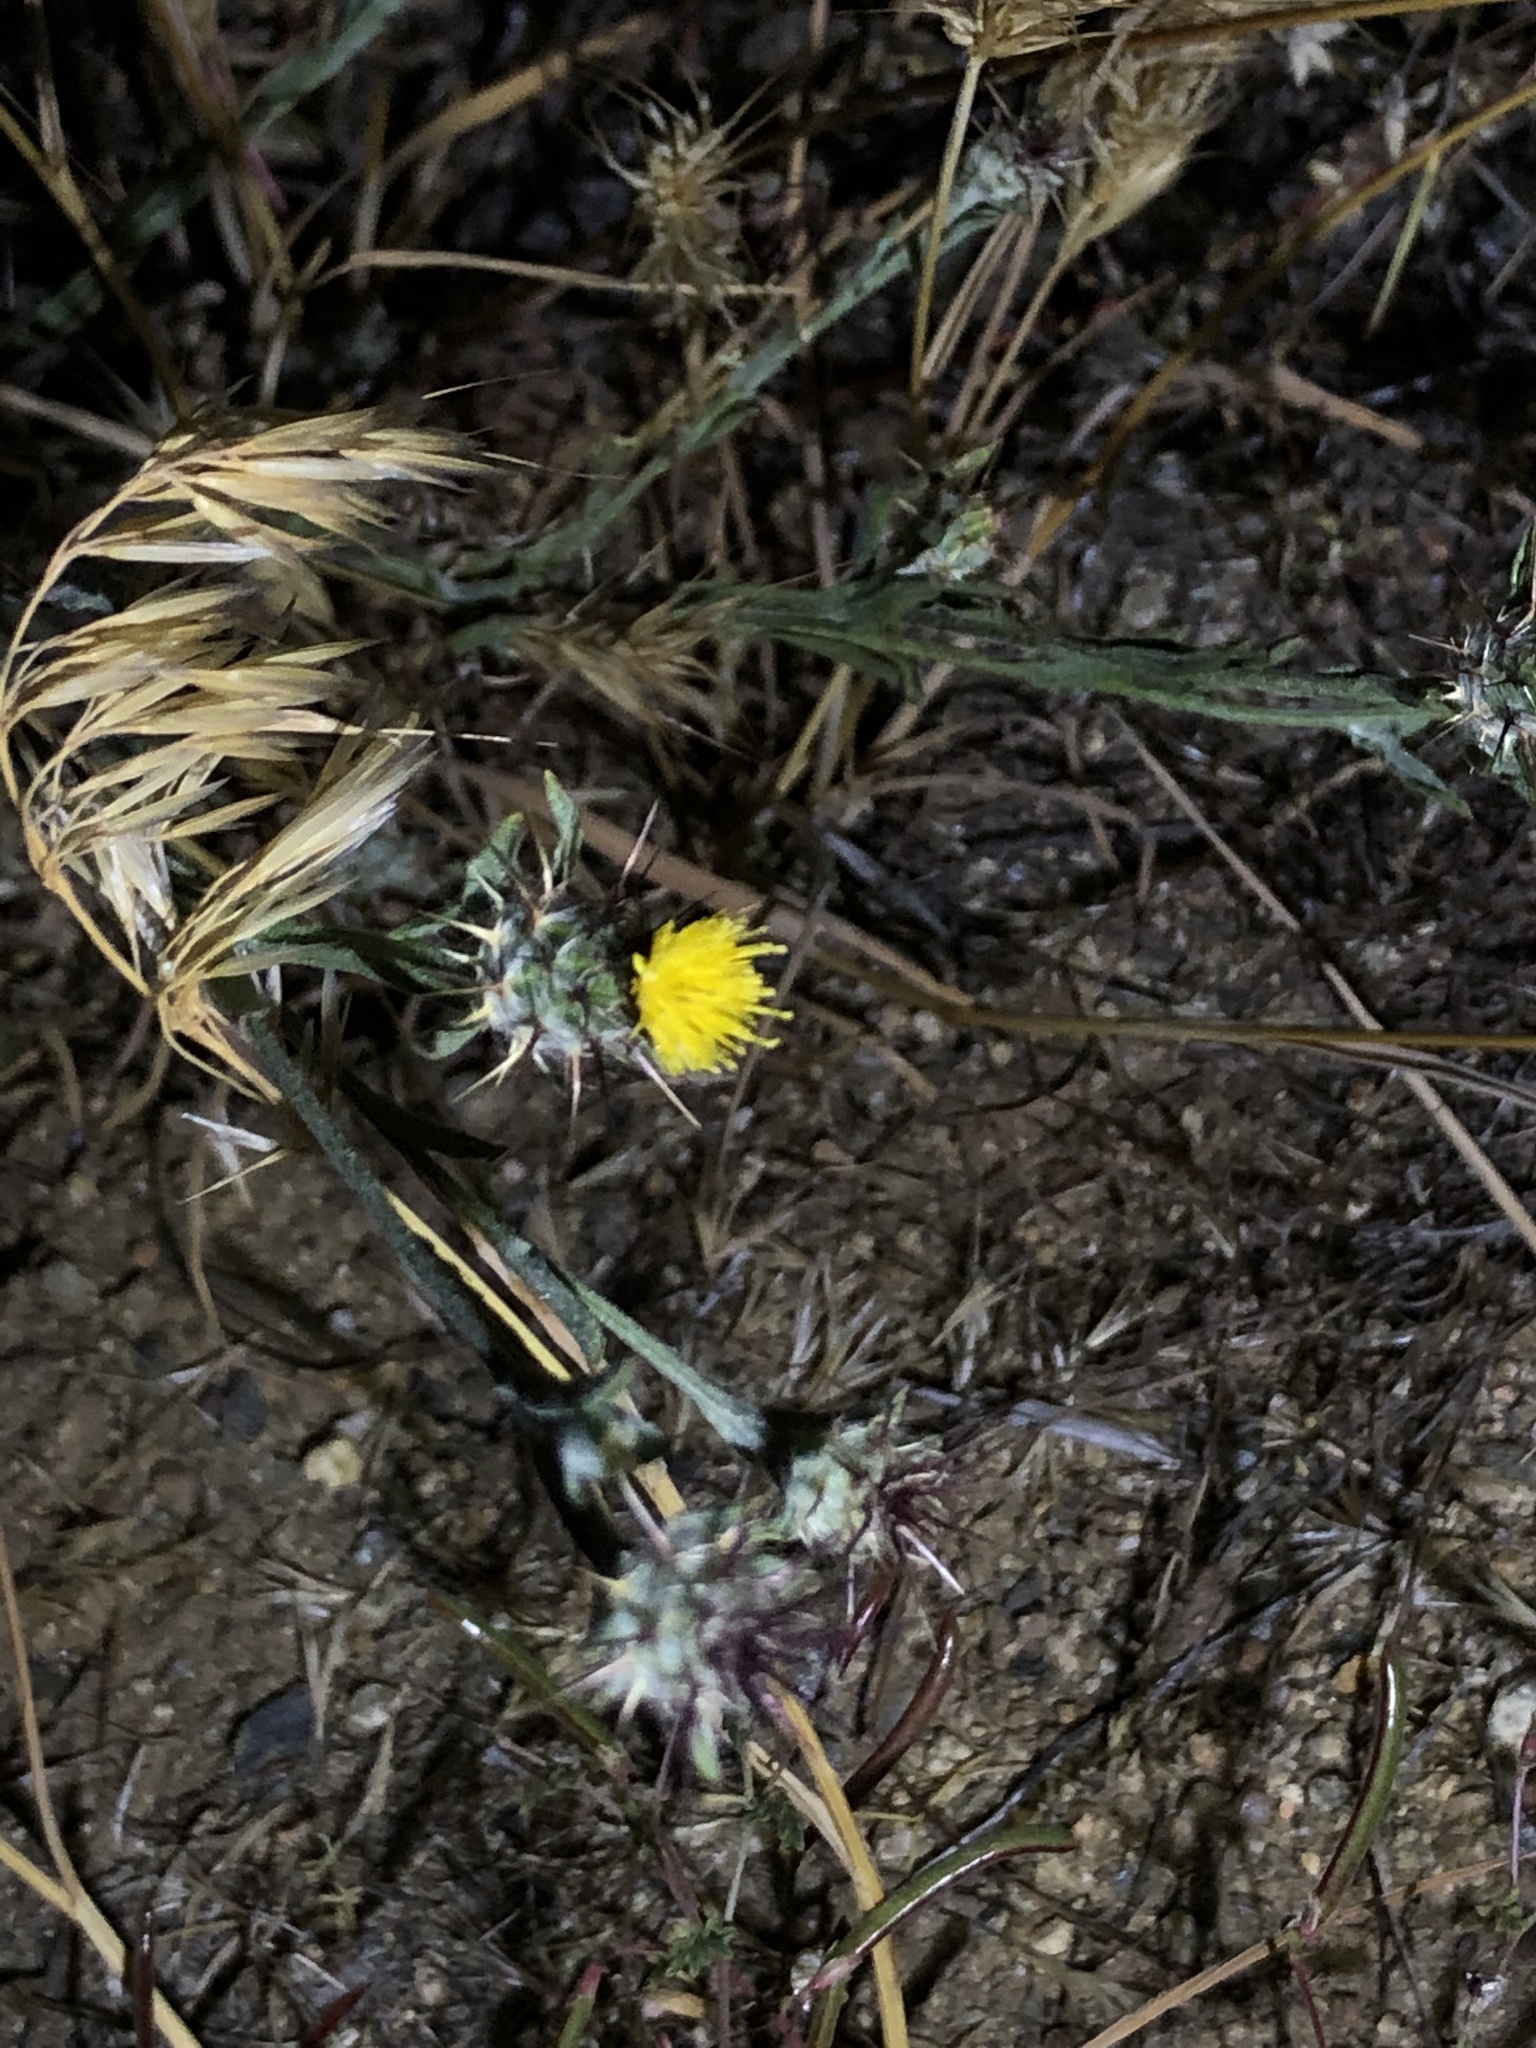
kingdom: Plantae
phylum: Tracheophyta
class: Magnoliopsida
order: Asterales
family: Asteraceae
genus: Centaurea
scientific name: Centaurea melitensis
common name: Maltese star-thistle
